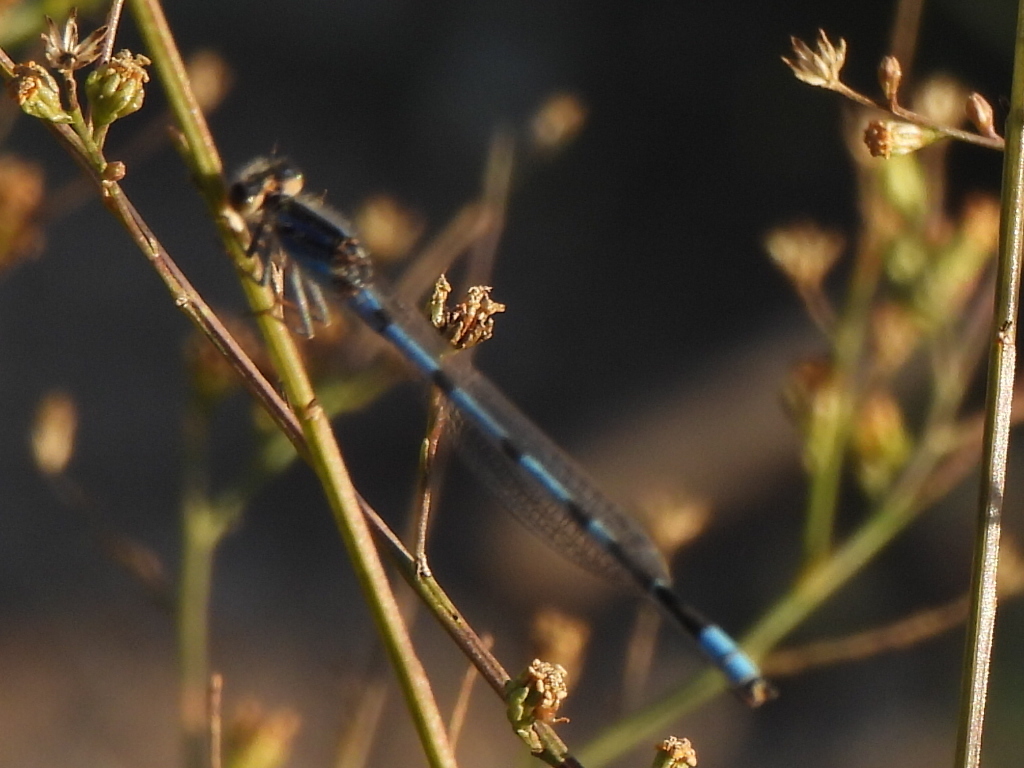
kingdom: Animalia
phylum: Arthropoda
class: Insecta
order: Odonata
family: Coenagrionidae
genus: Enallagma
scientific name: Enallagma civile
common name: Damselfly
